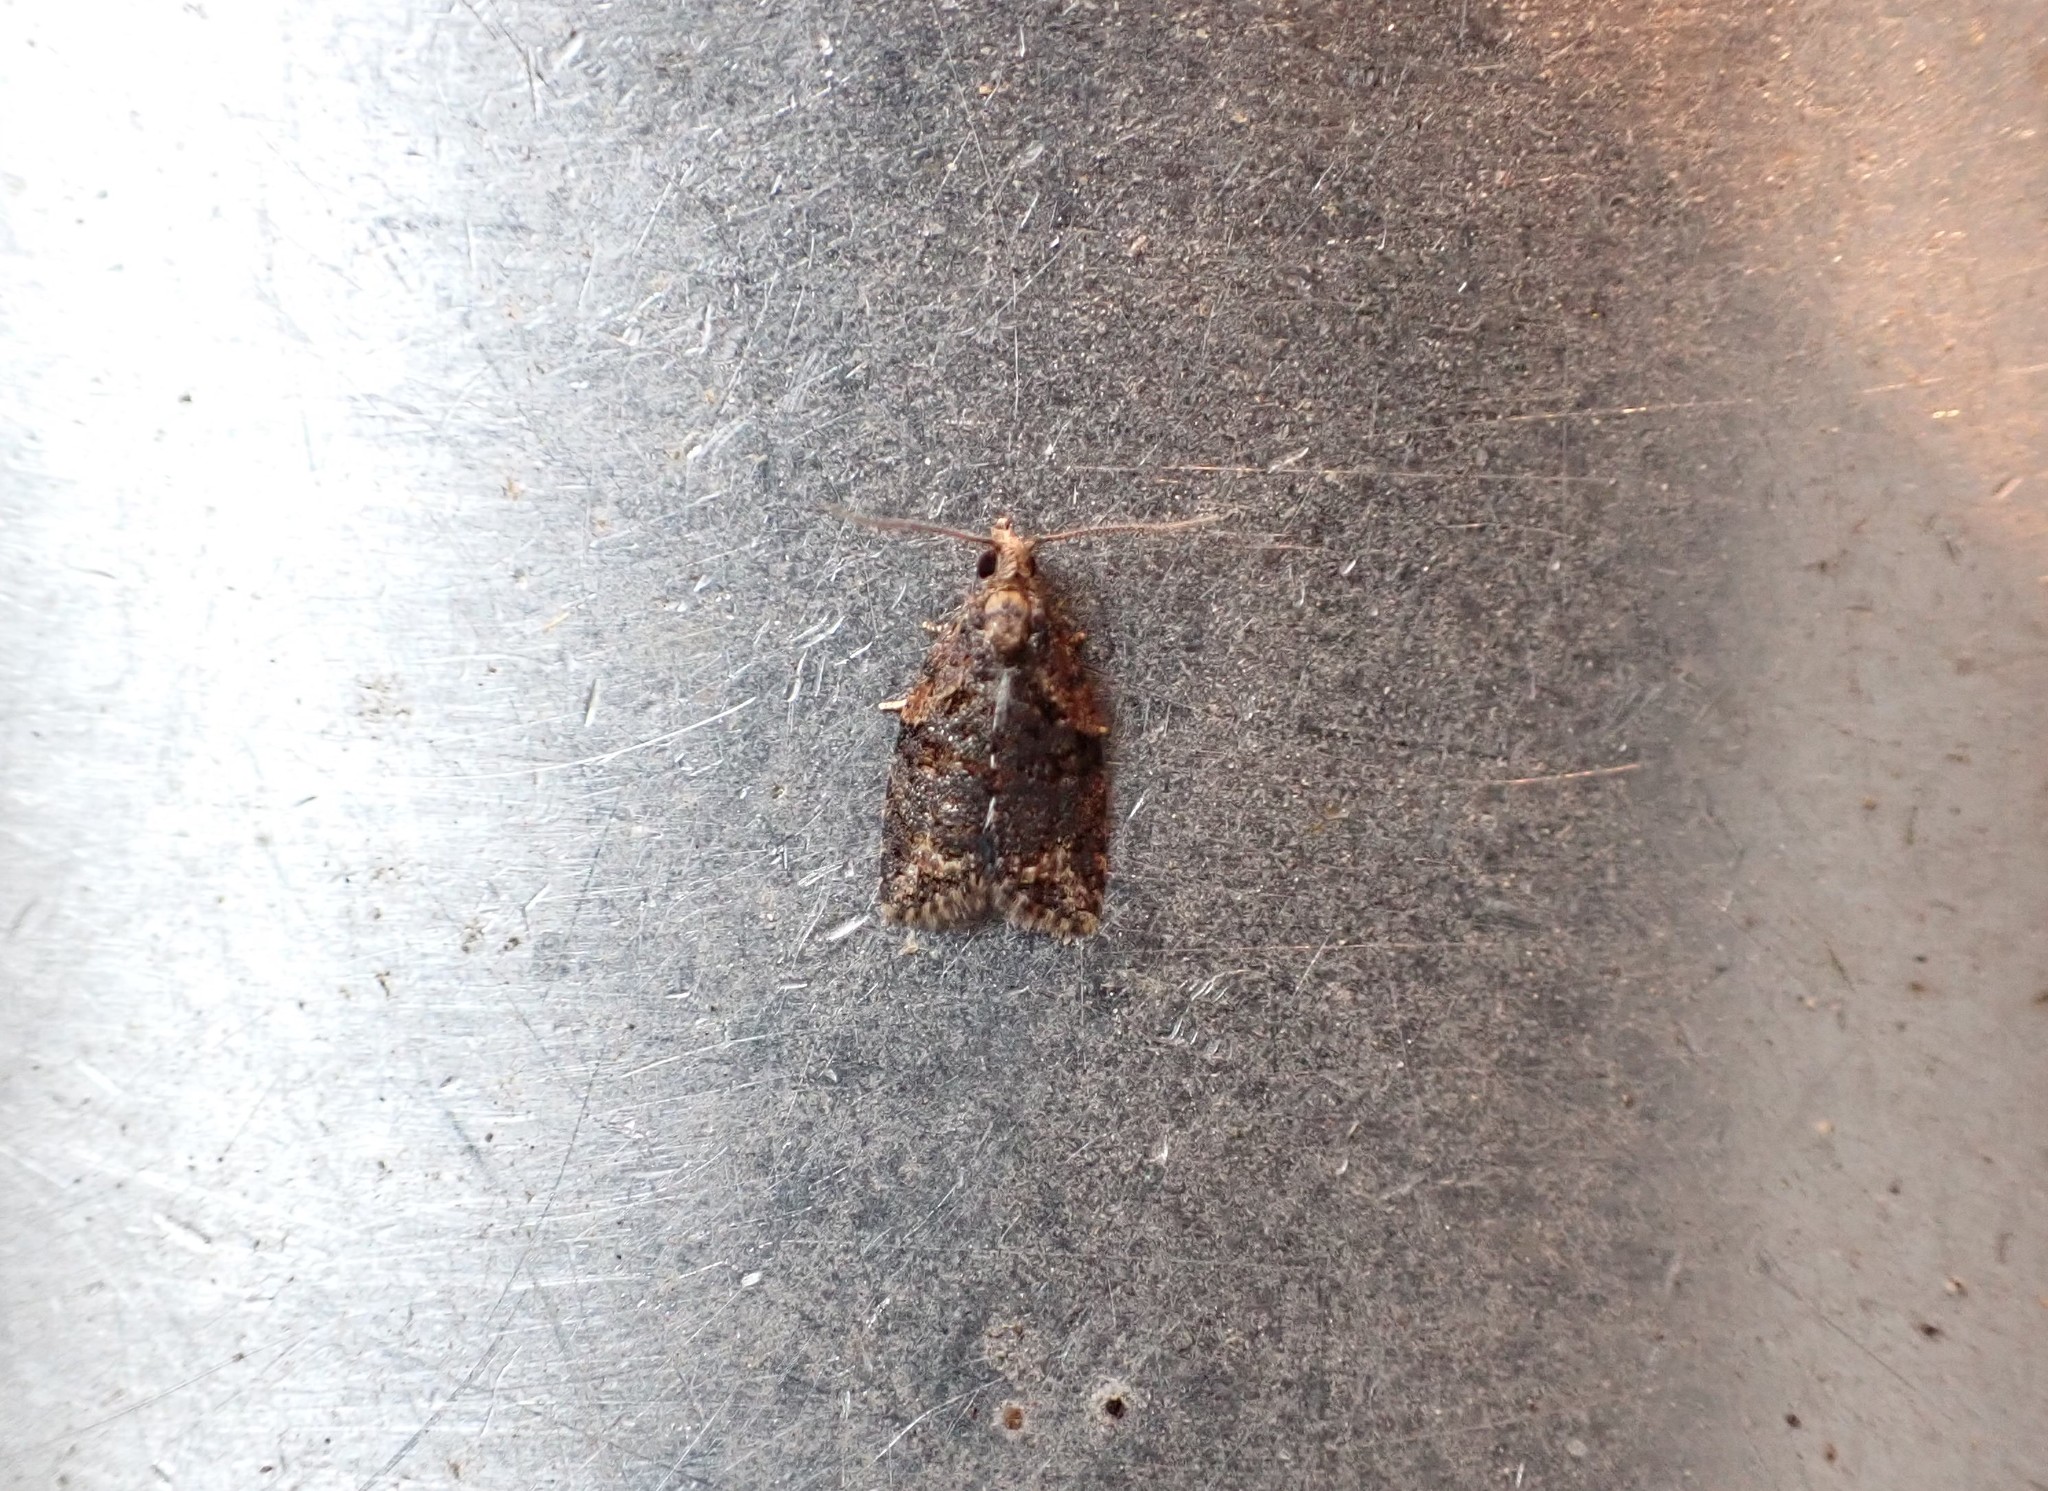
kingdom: Animalia
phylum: Arthropoda
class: Insecta
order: Lepidoptera
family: Tortricidae
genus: Capua
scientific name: Capua intractana
